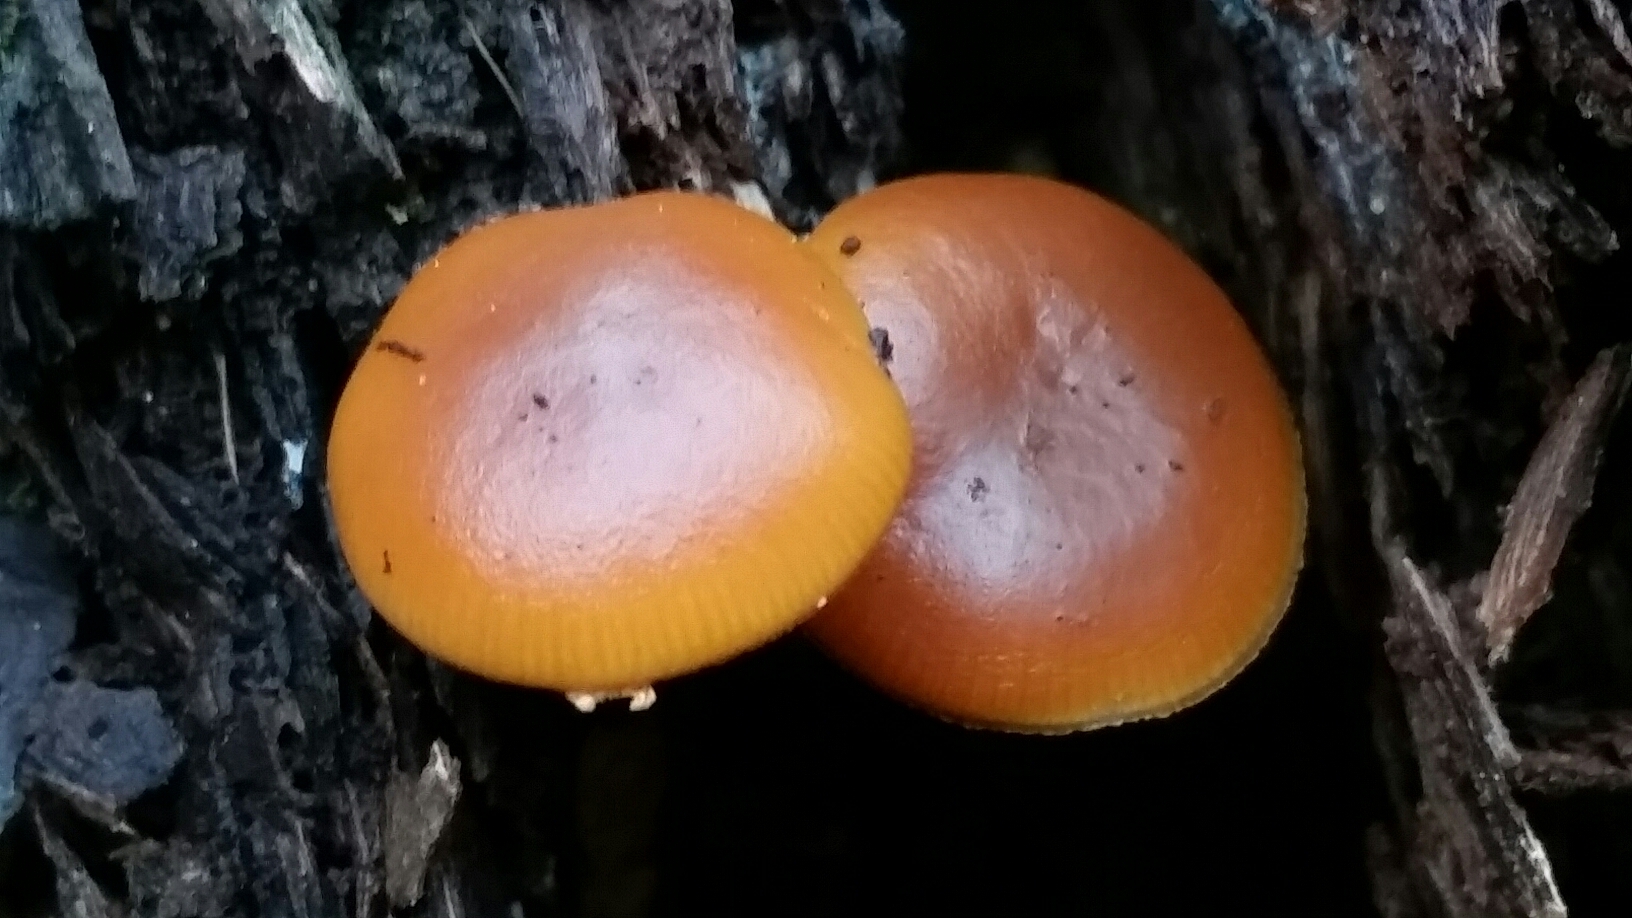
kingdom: Fungi
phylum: Basidiomycota
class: Agaricomycetes
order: Agaricales
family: Hymenogastraceae
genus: Galerina
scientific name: Galerina marginata
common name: Funeral bell
